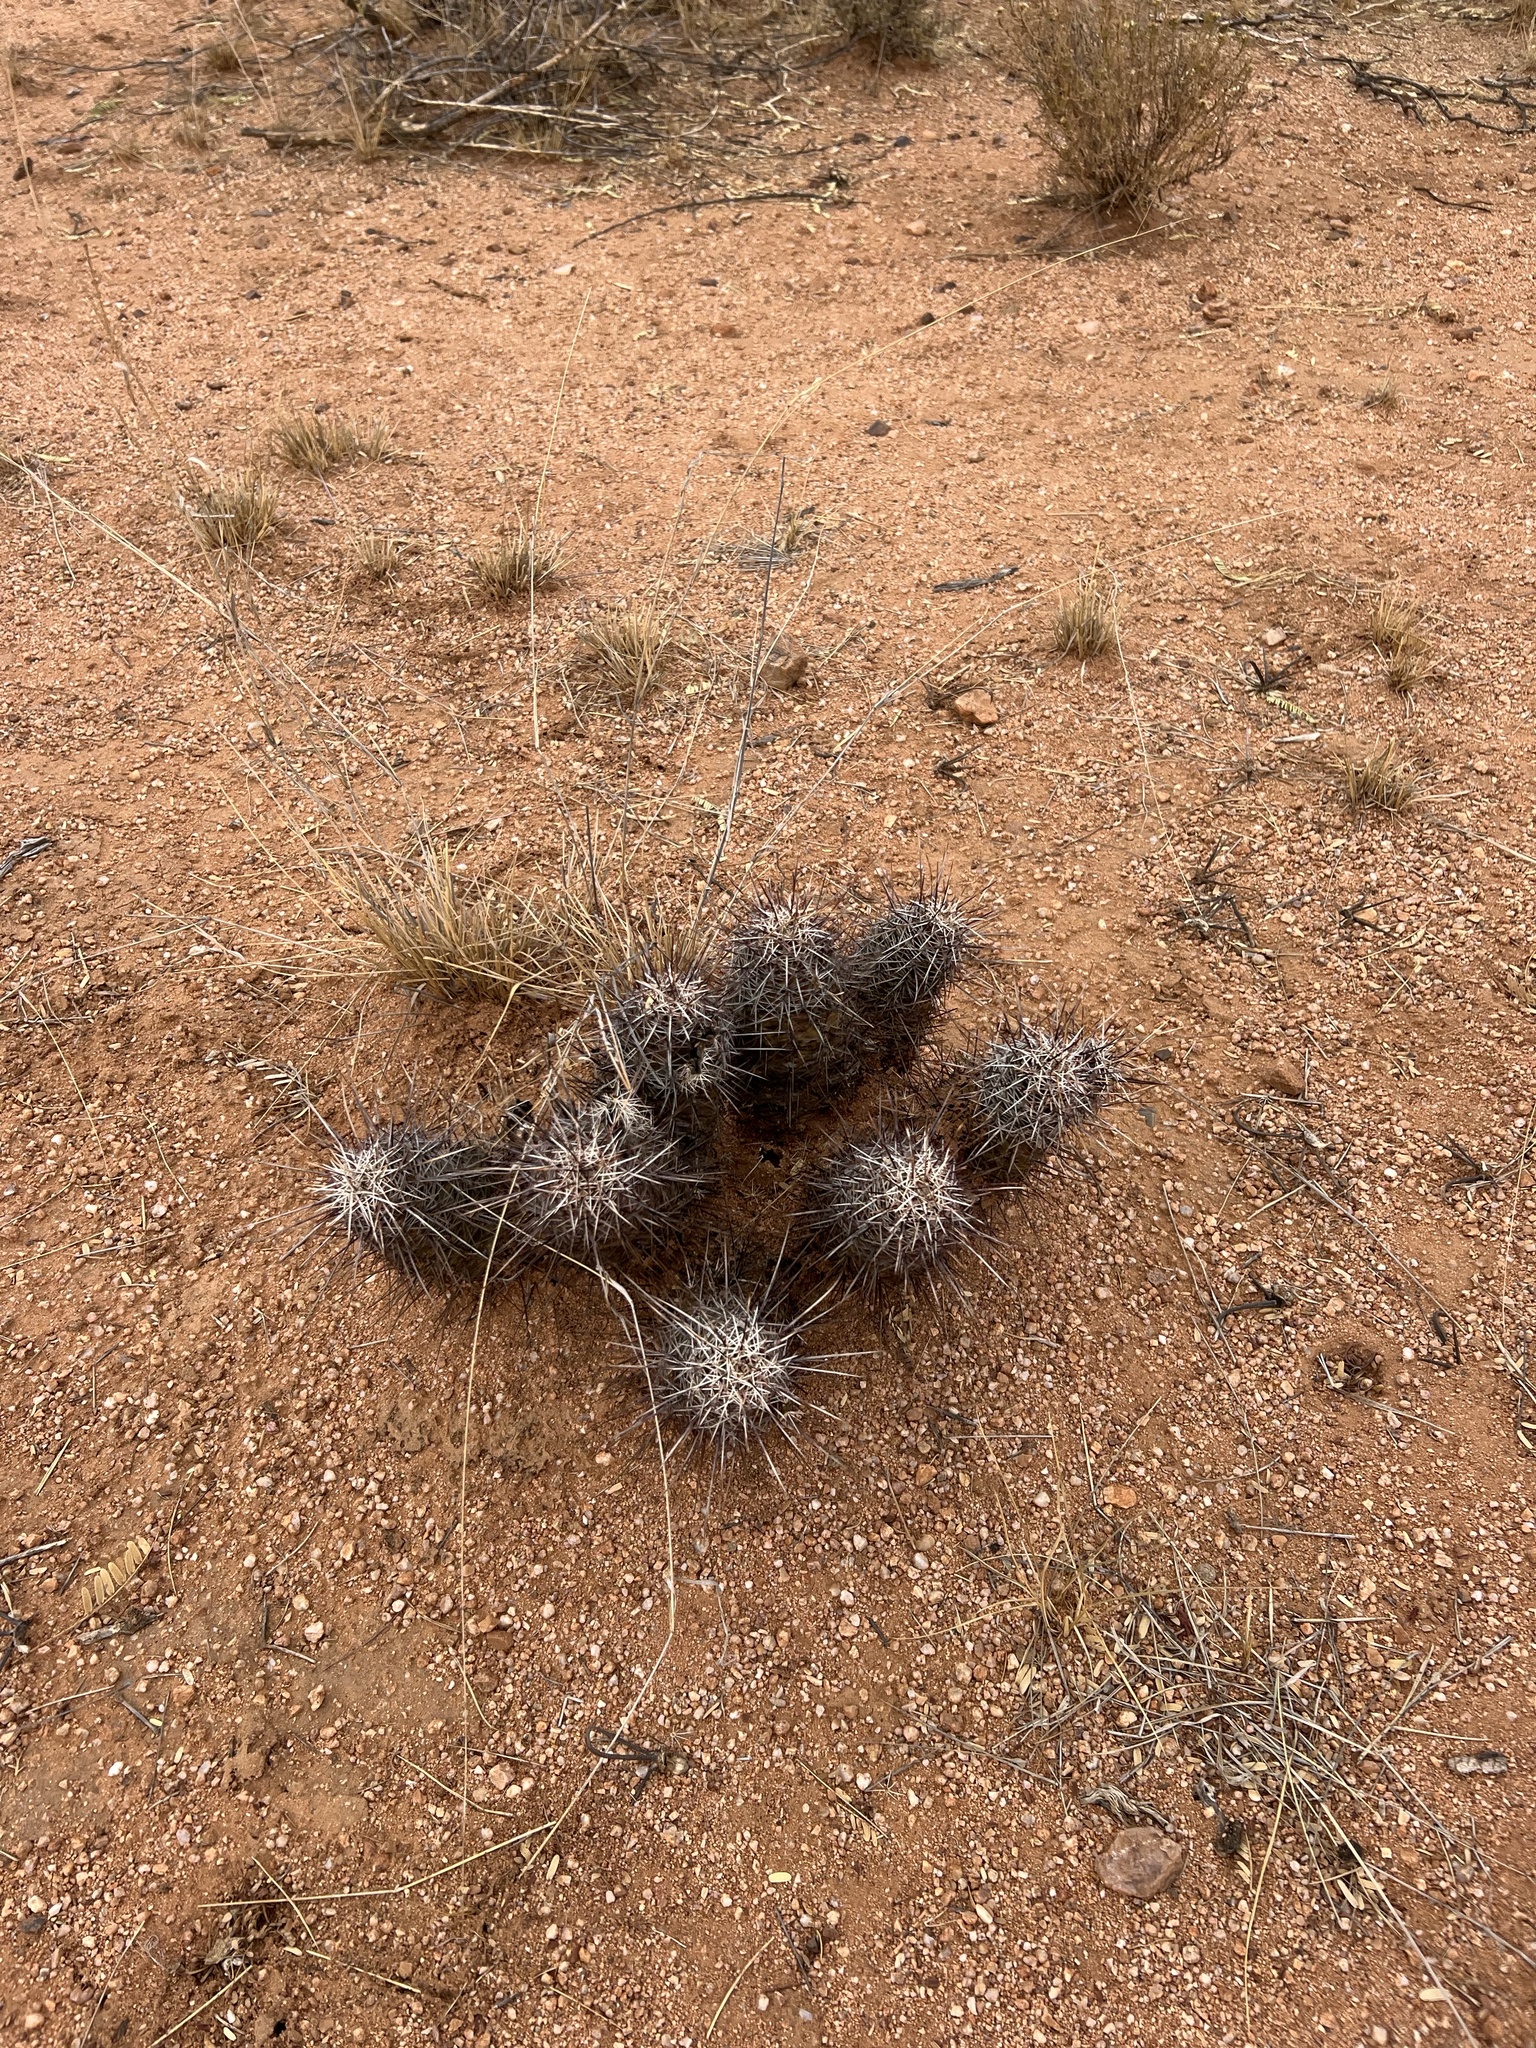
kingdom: Plantae
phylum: Tracheophyta
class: Magnoliopsida
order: Caryophyllales
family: Cactaceae
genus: Echinocereus
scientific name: Echinocereus fasciculatus
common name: Bundle hedgehog
